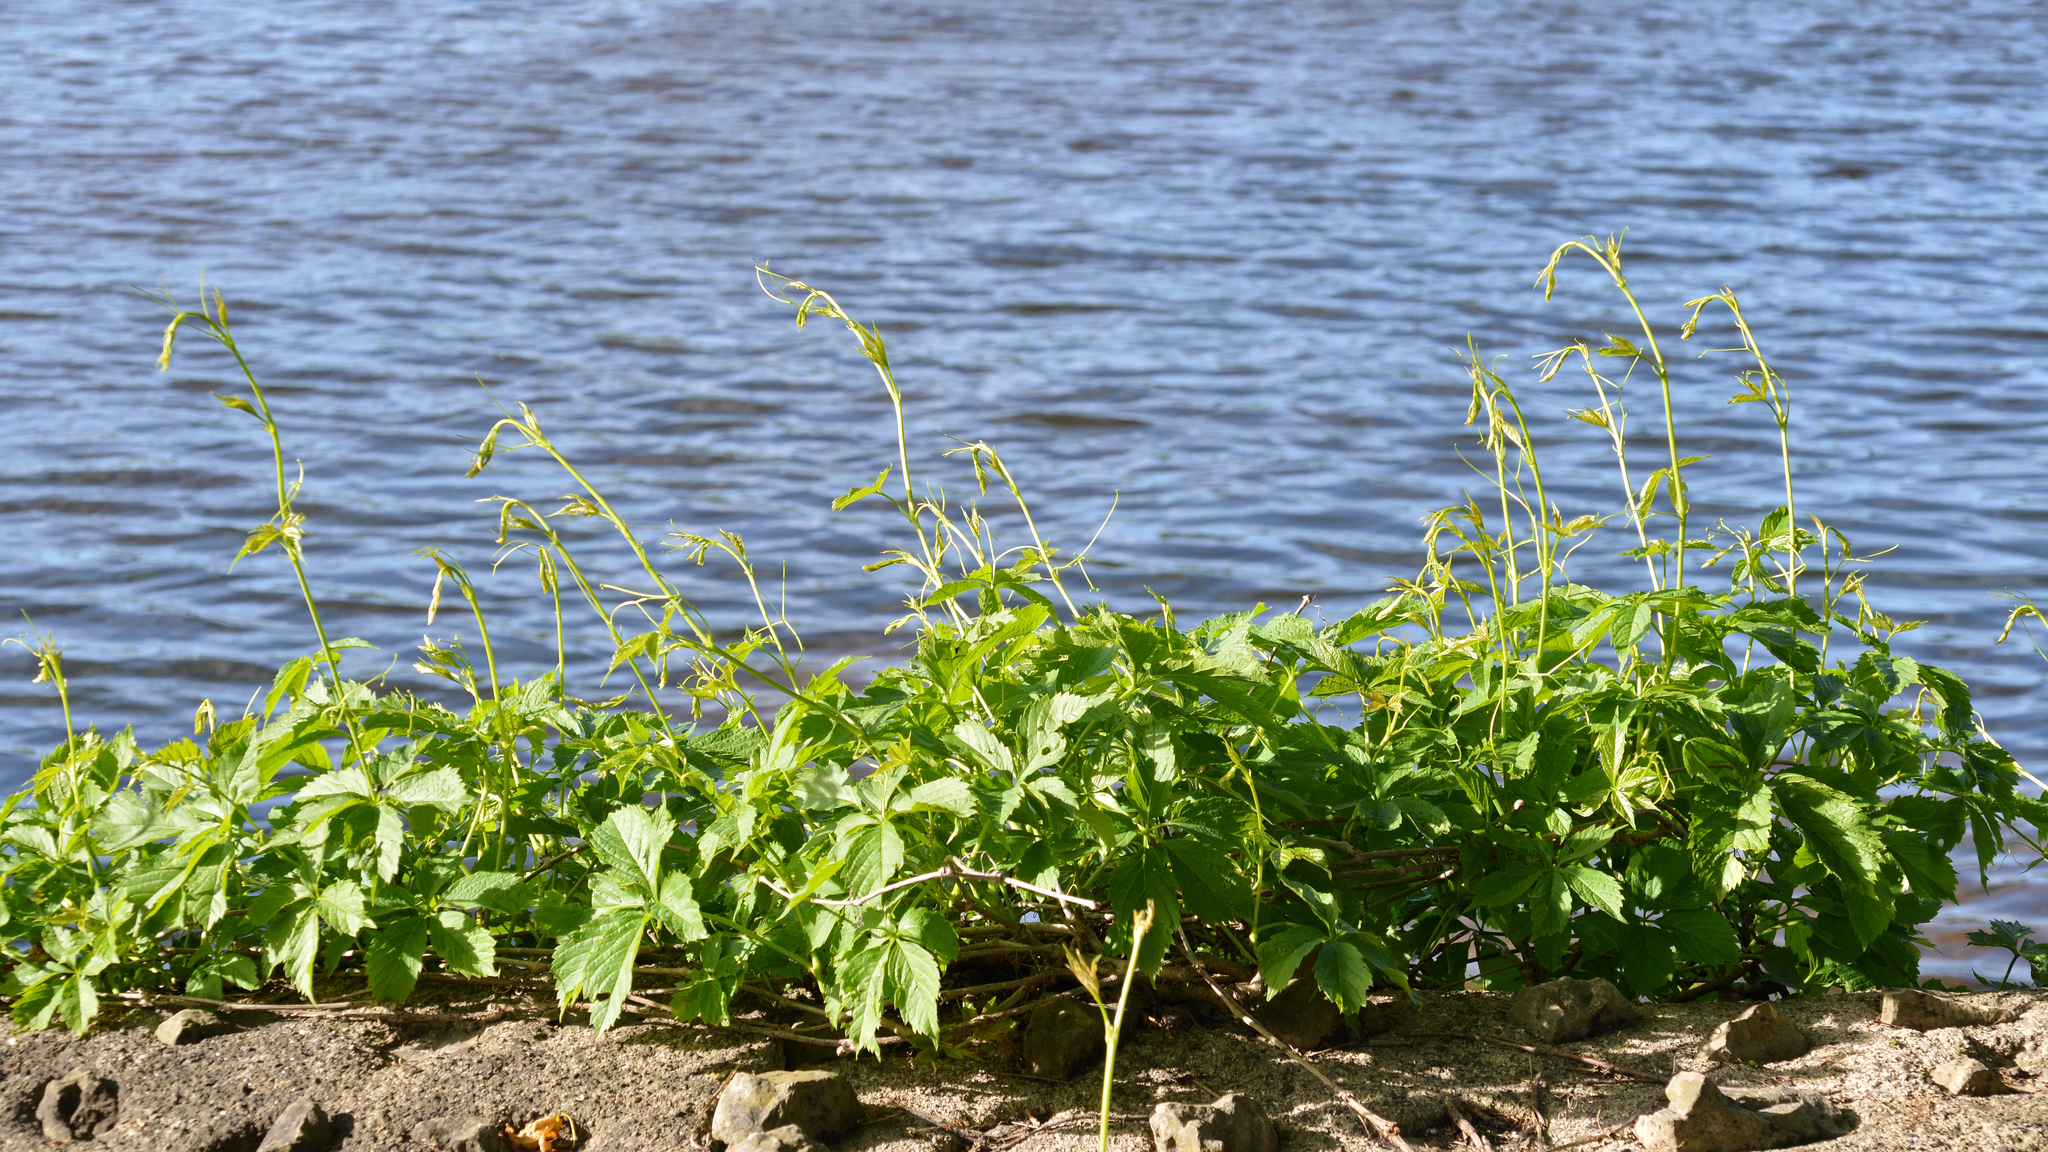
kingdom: Plantae
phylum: Tracheophyta
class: Magnoliopsida
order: Vitales
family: Vitaceae
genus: Parthenocissus
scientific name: Parthenocissus quinquefolia
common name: Virginia-creeper
